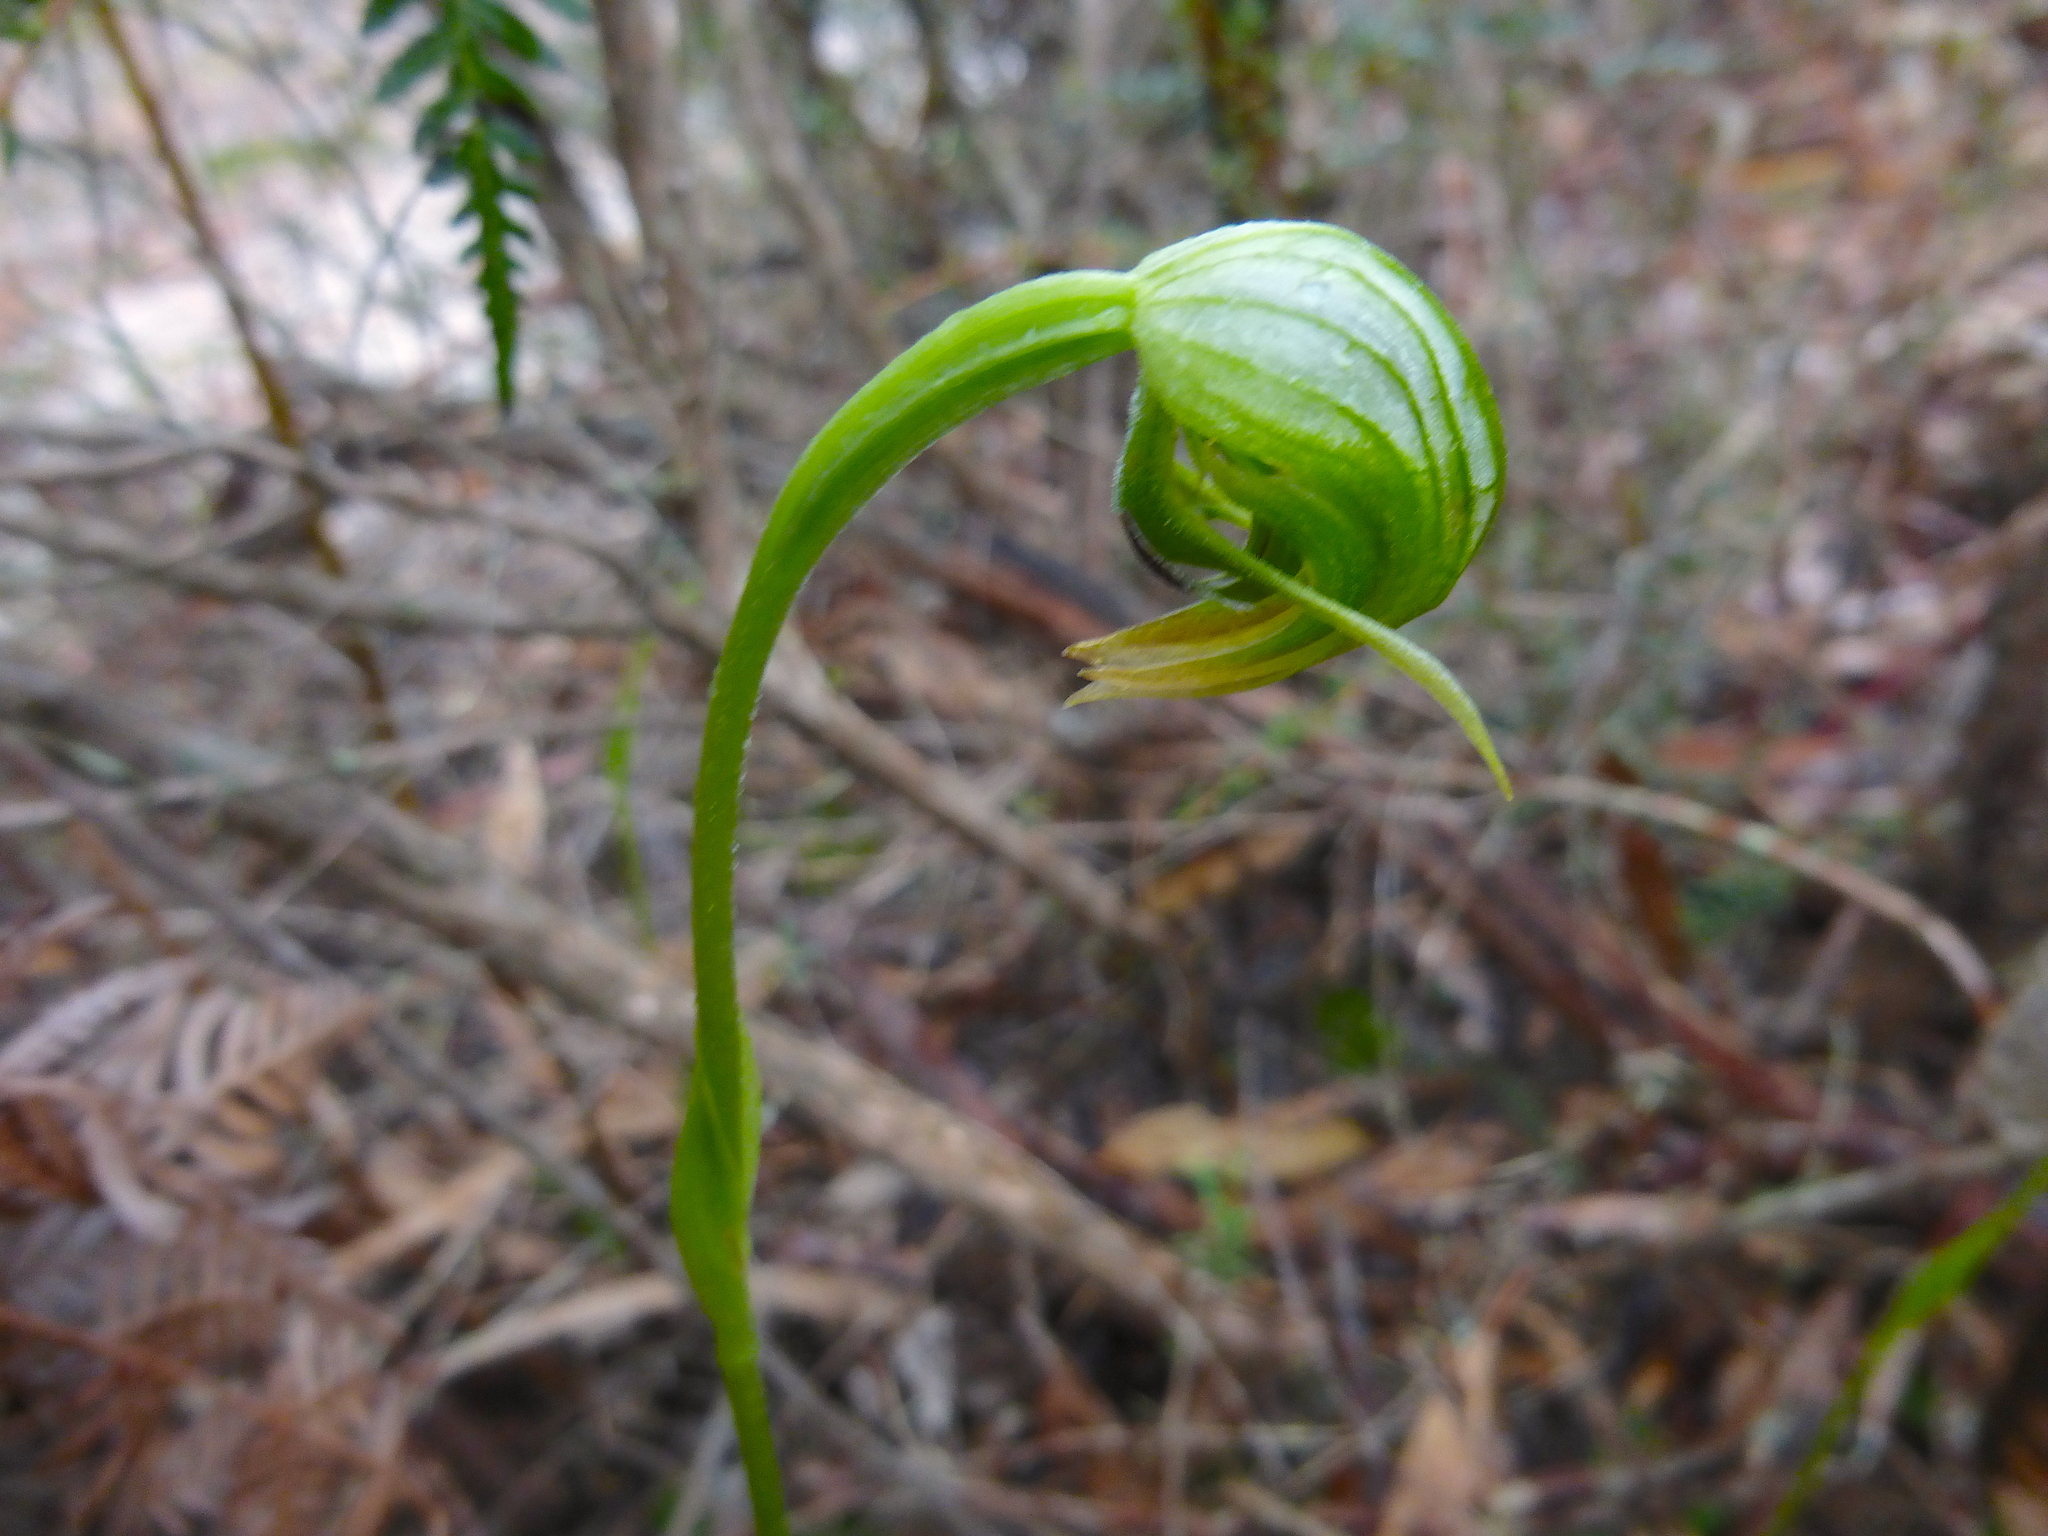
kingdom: Plantae
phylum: Tracheophyta
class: Liliopsida
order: Asparagales
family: Orchidaceae
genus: Pterostylis
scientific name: Pterostylis nutans
